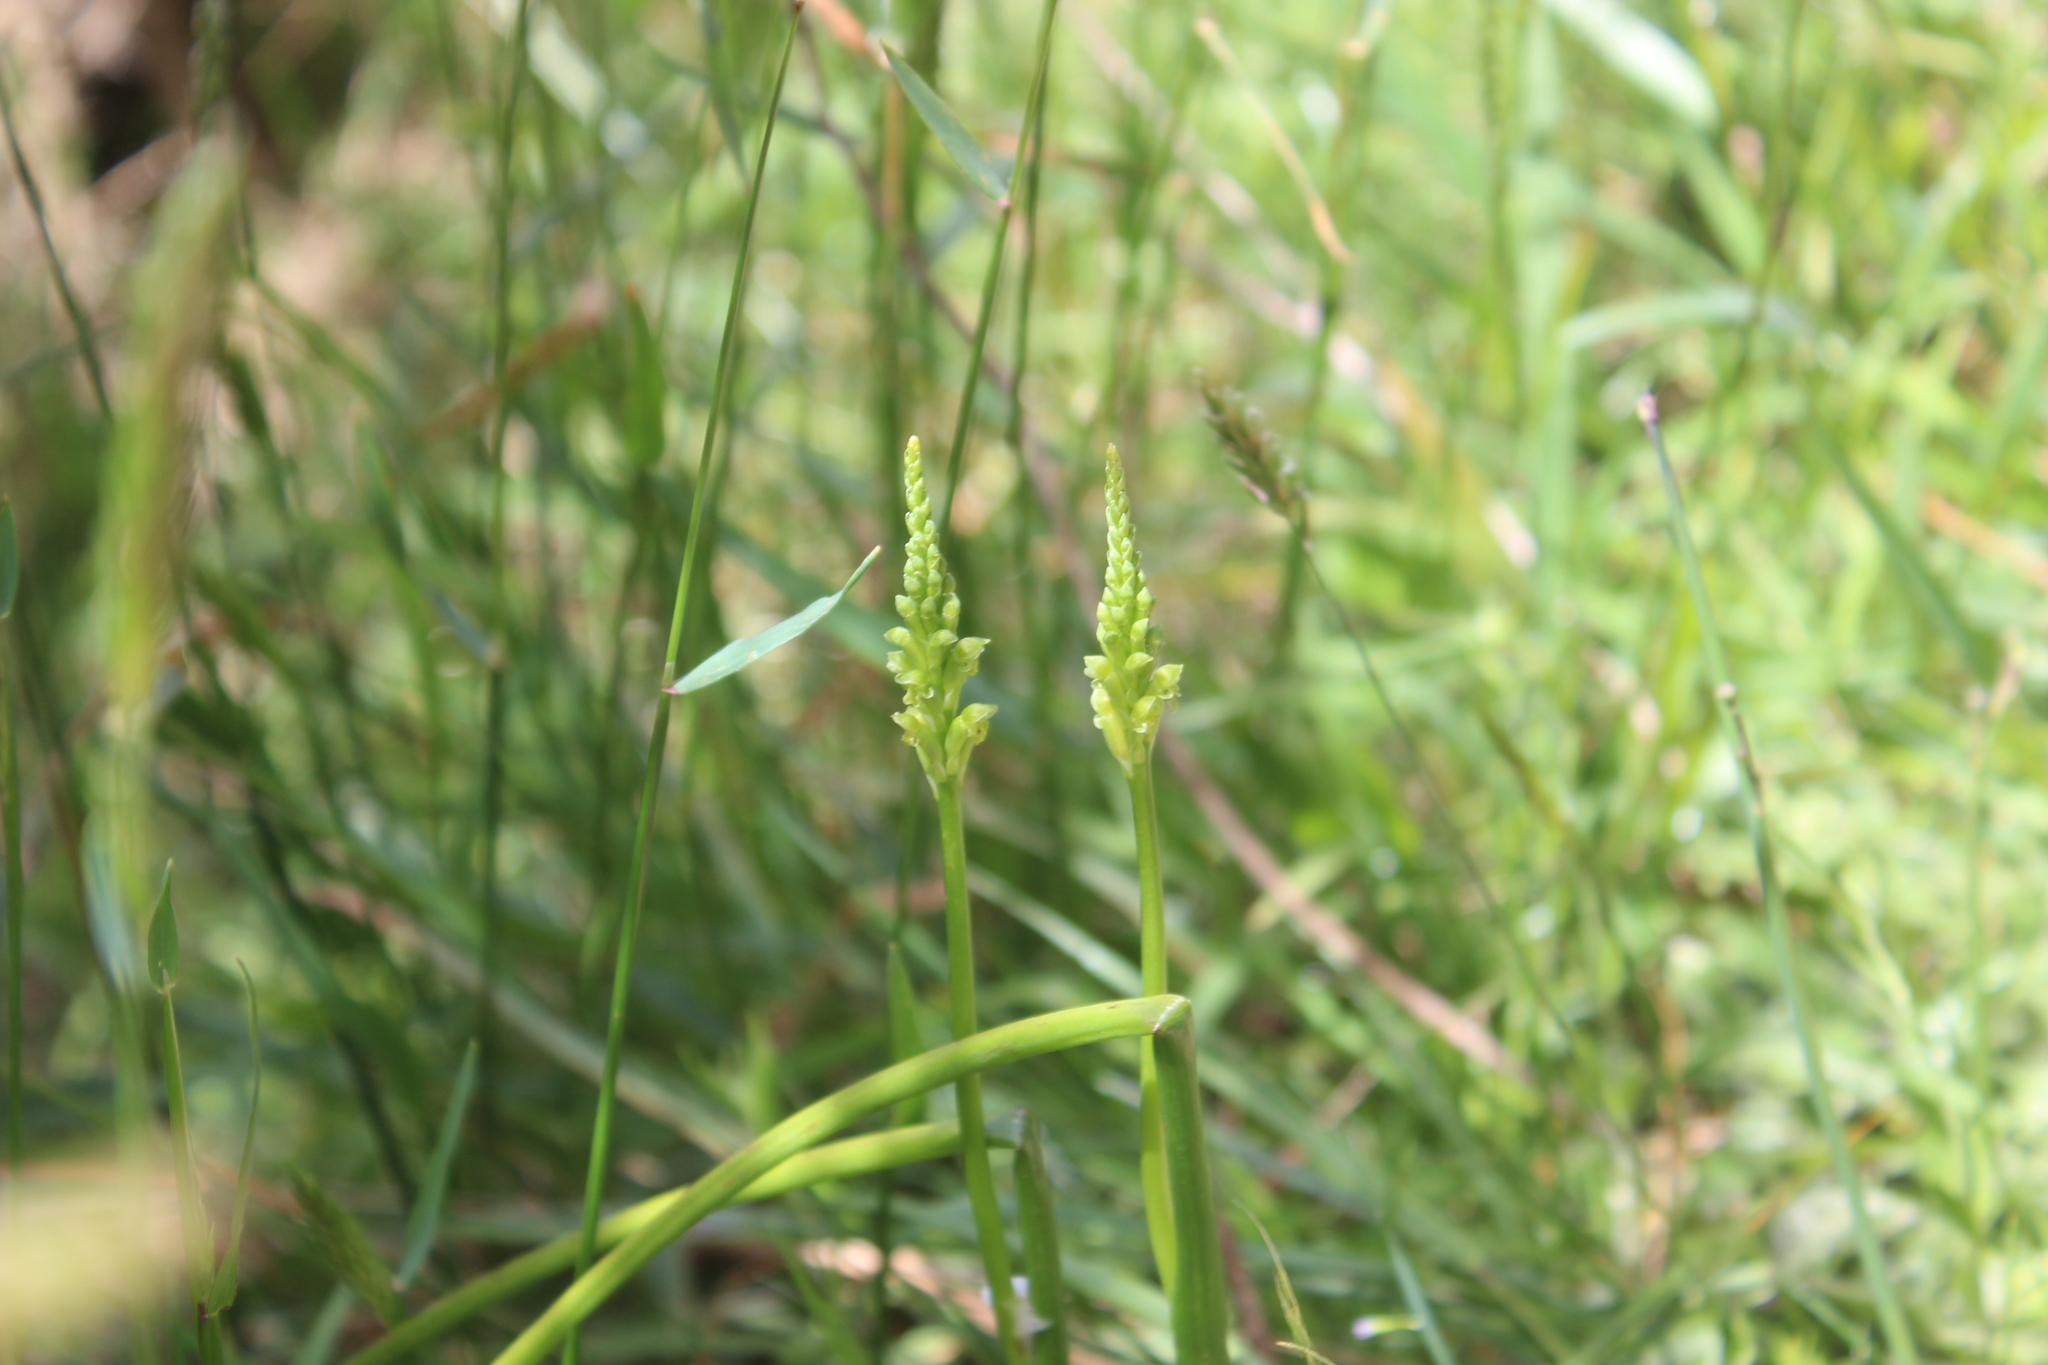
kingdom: Plantae
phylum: Tracheophyta
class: Liliopsida
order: Asparagales
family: Orchidaceae
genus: Microtis
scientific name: Microtis unifolia
